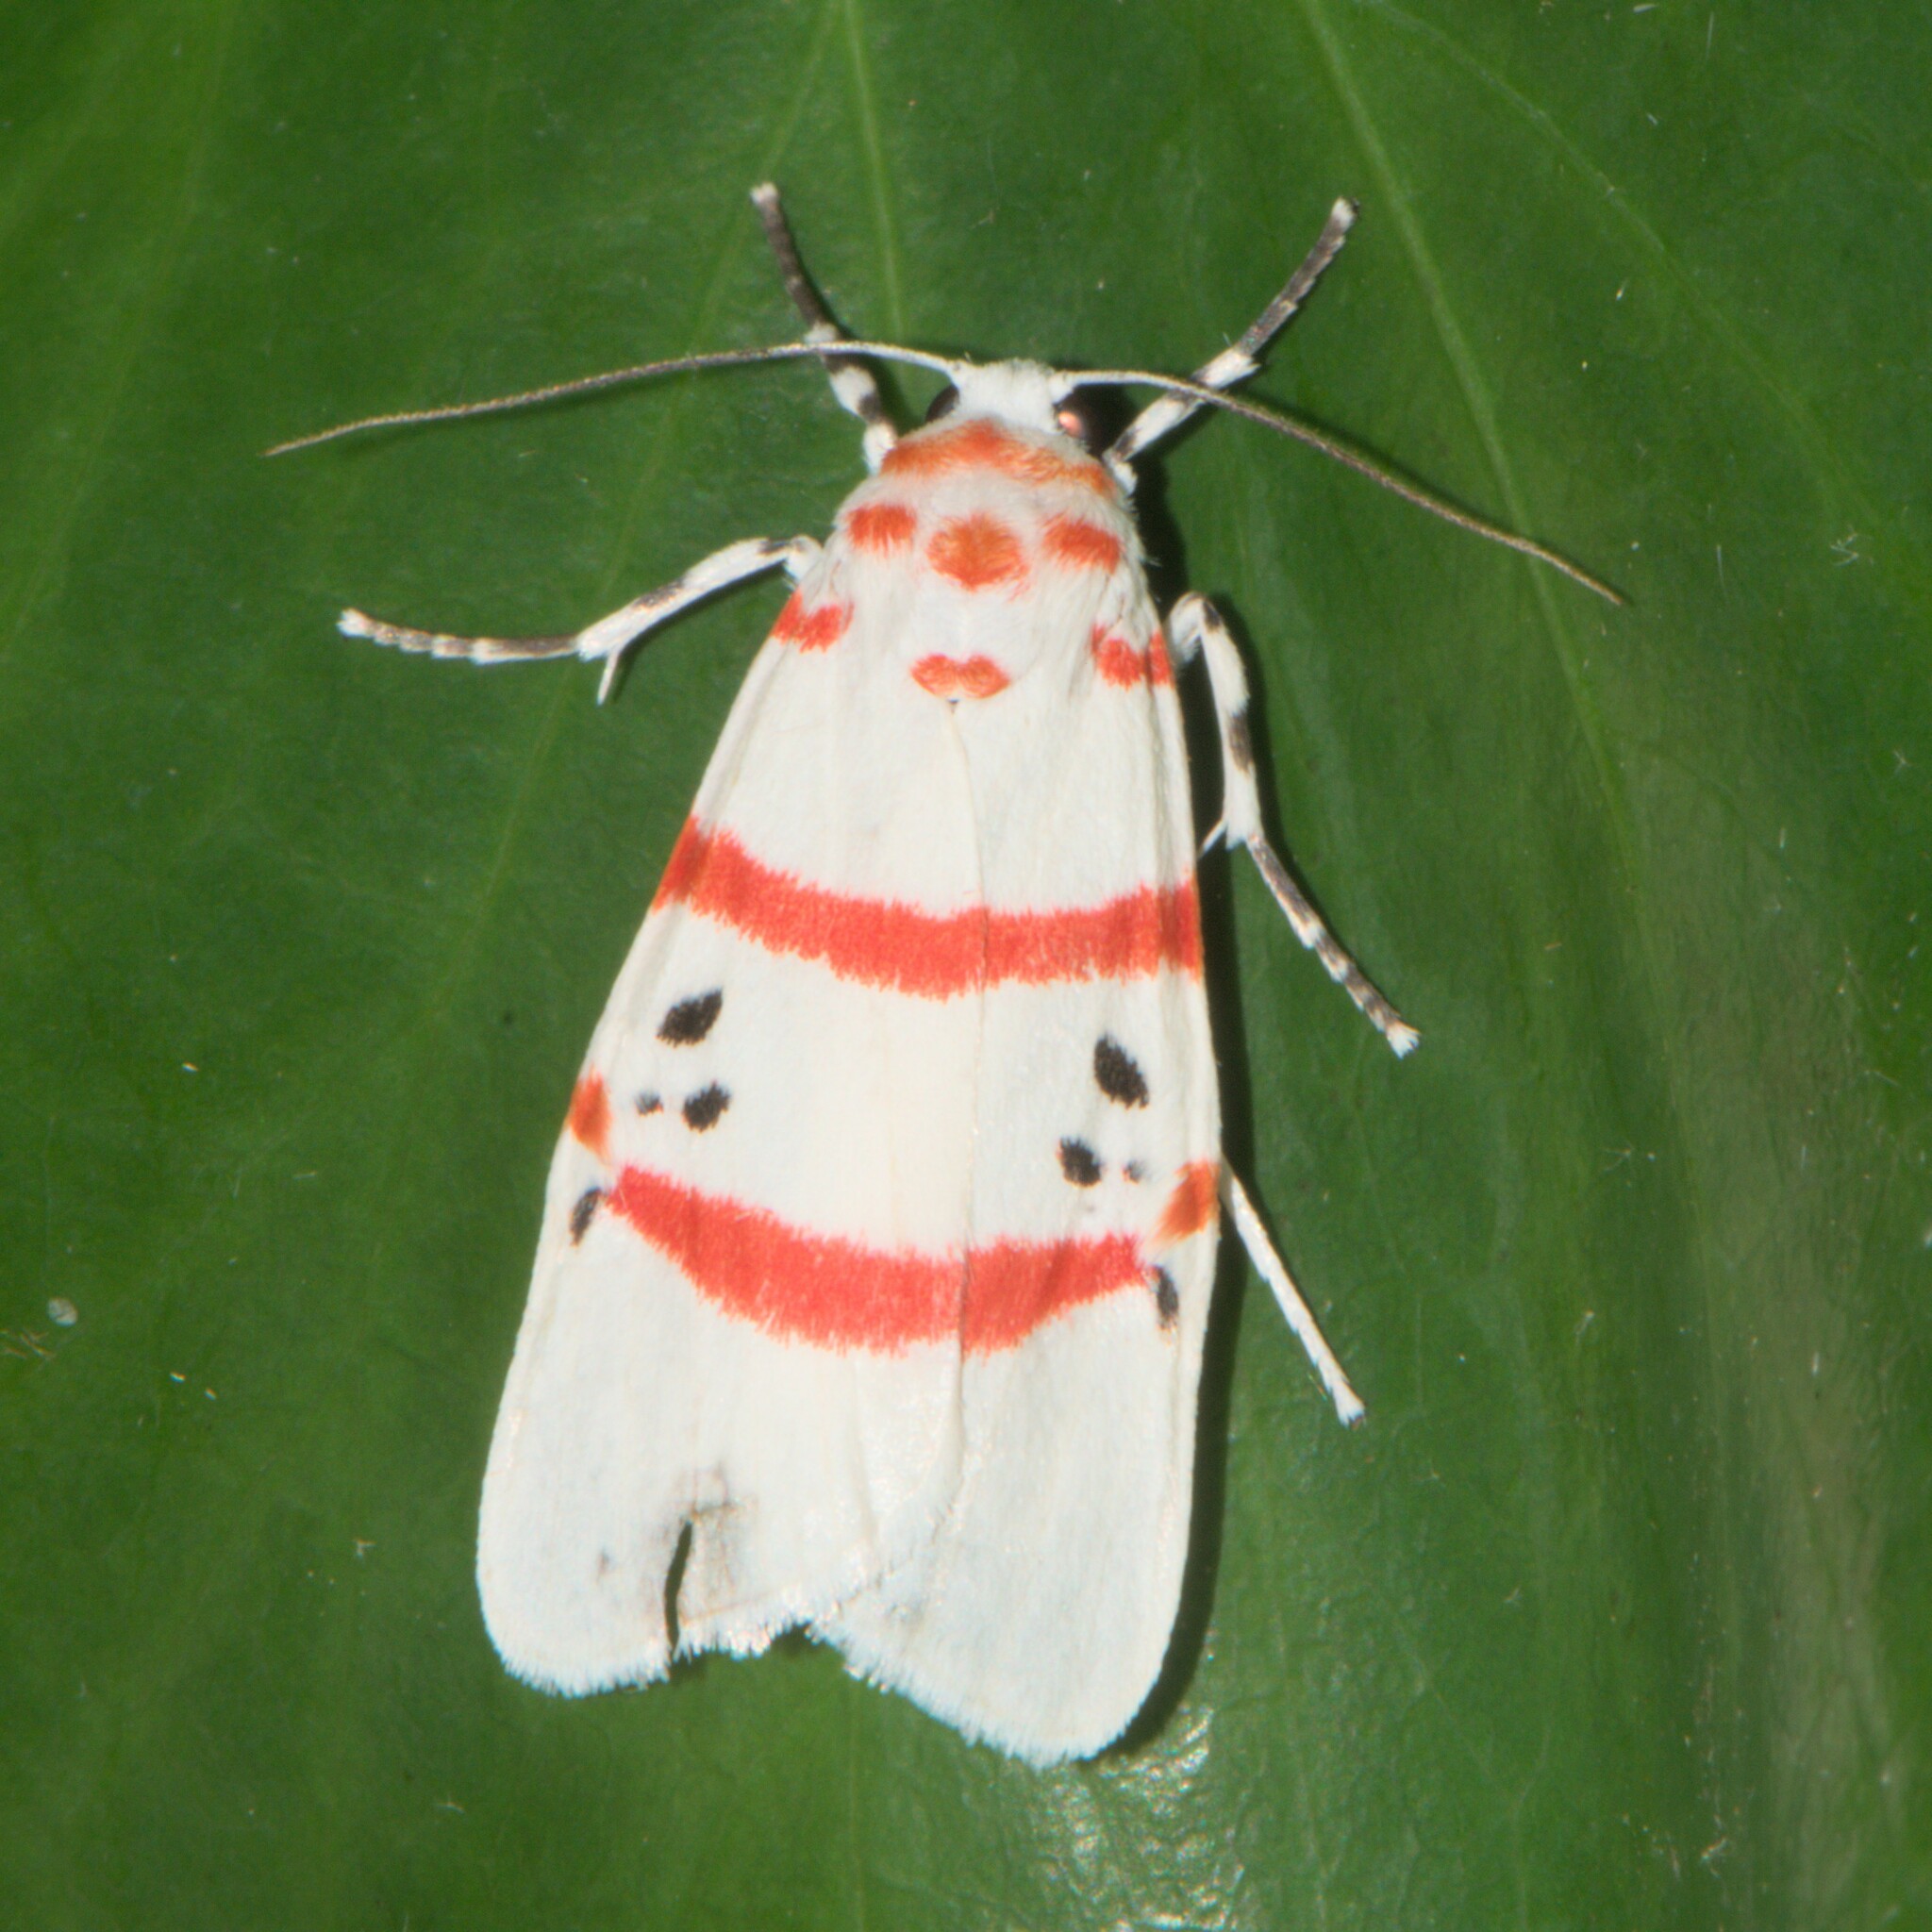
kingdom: Animalia
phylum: Arthropoda
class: Insecta
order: Lepidoptera
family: Erebidae
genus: Cyana
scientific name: Cyana adita
